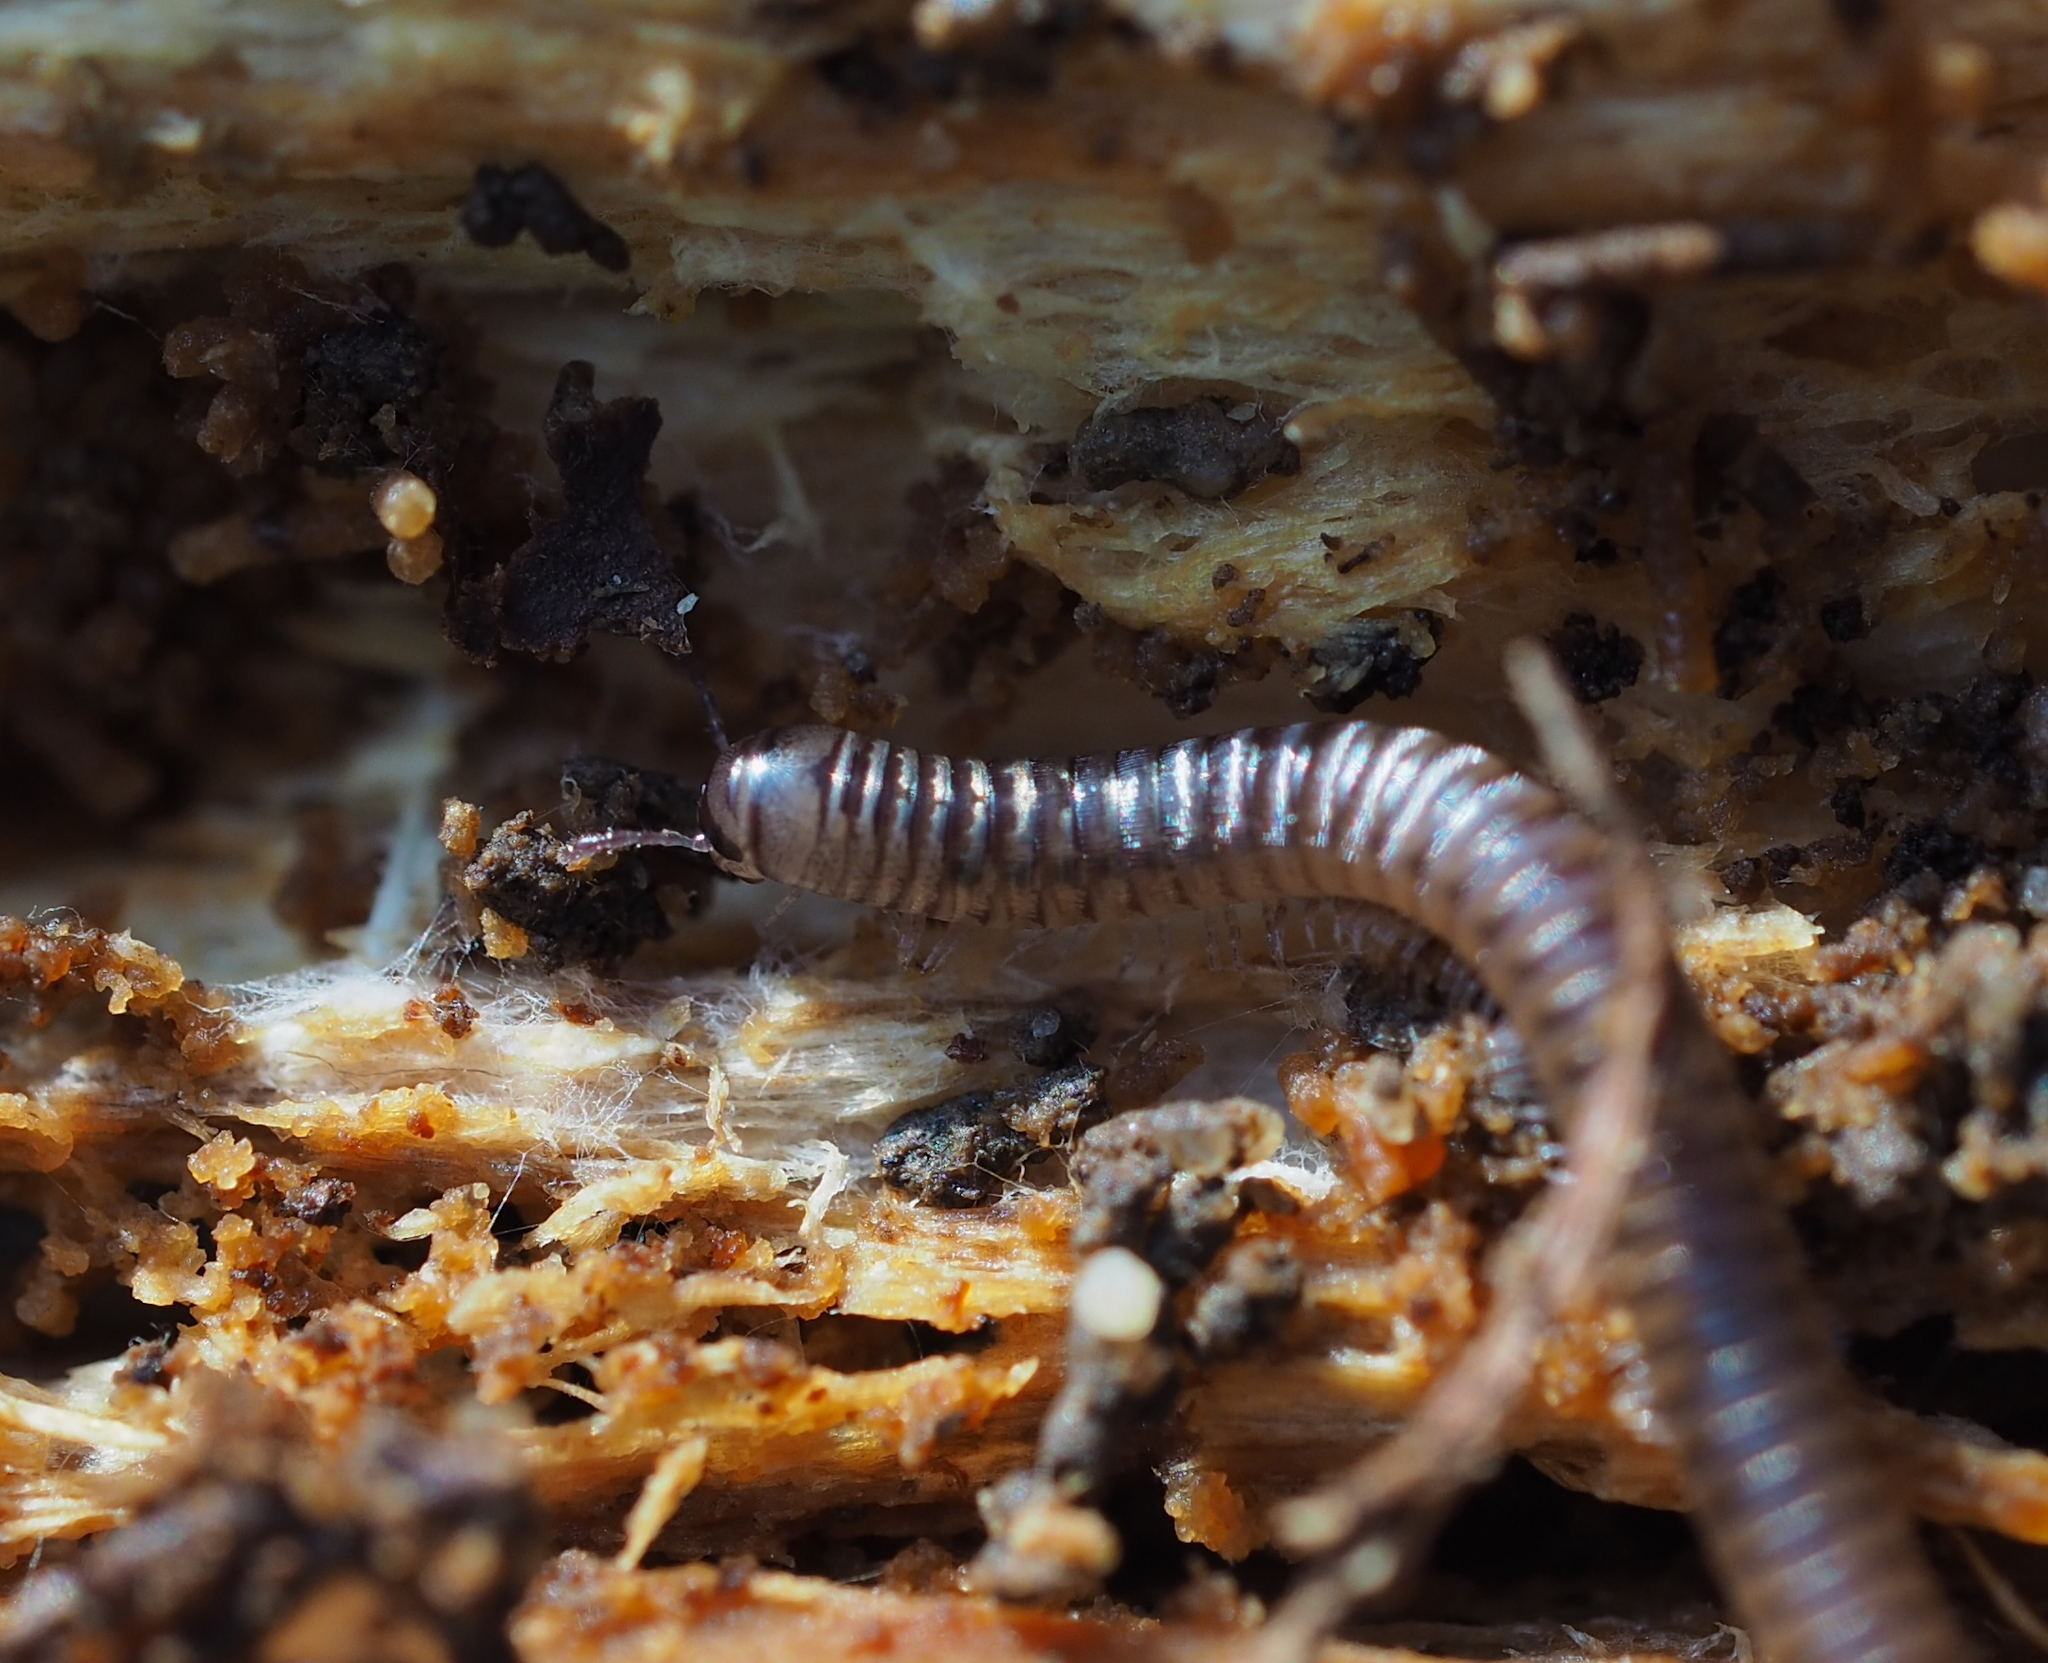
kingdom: Animalia
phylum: Arthropoda
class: Diplopoda
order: Julida
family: Julidae
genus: Cylindroiulus
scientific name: Cylindroiulus punctatus
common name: Blunt-tailed millipede
